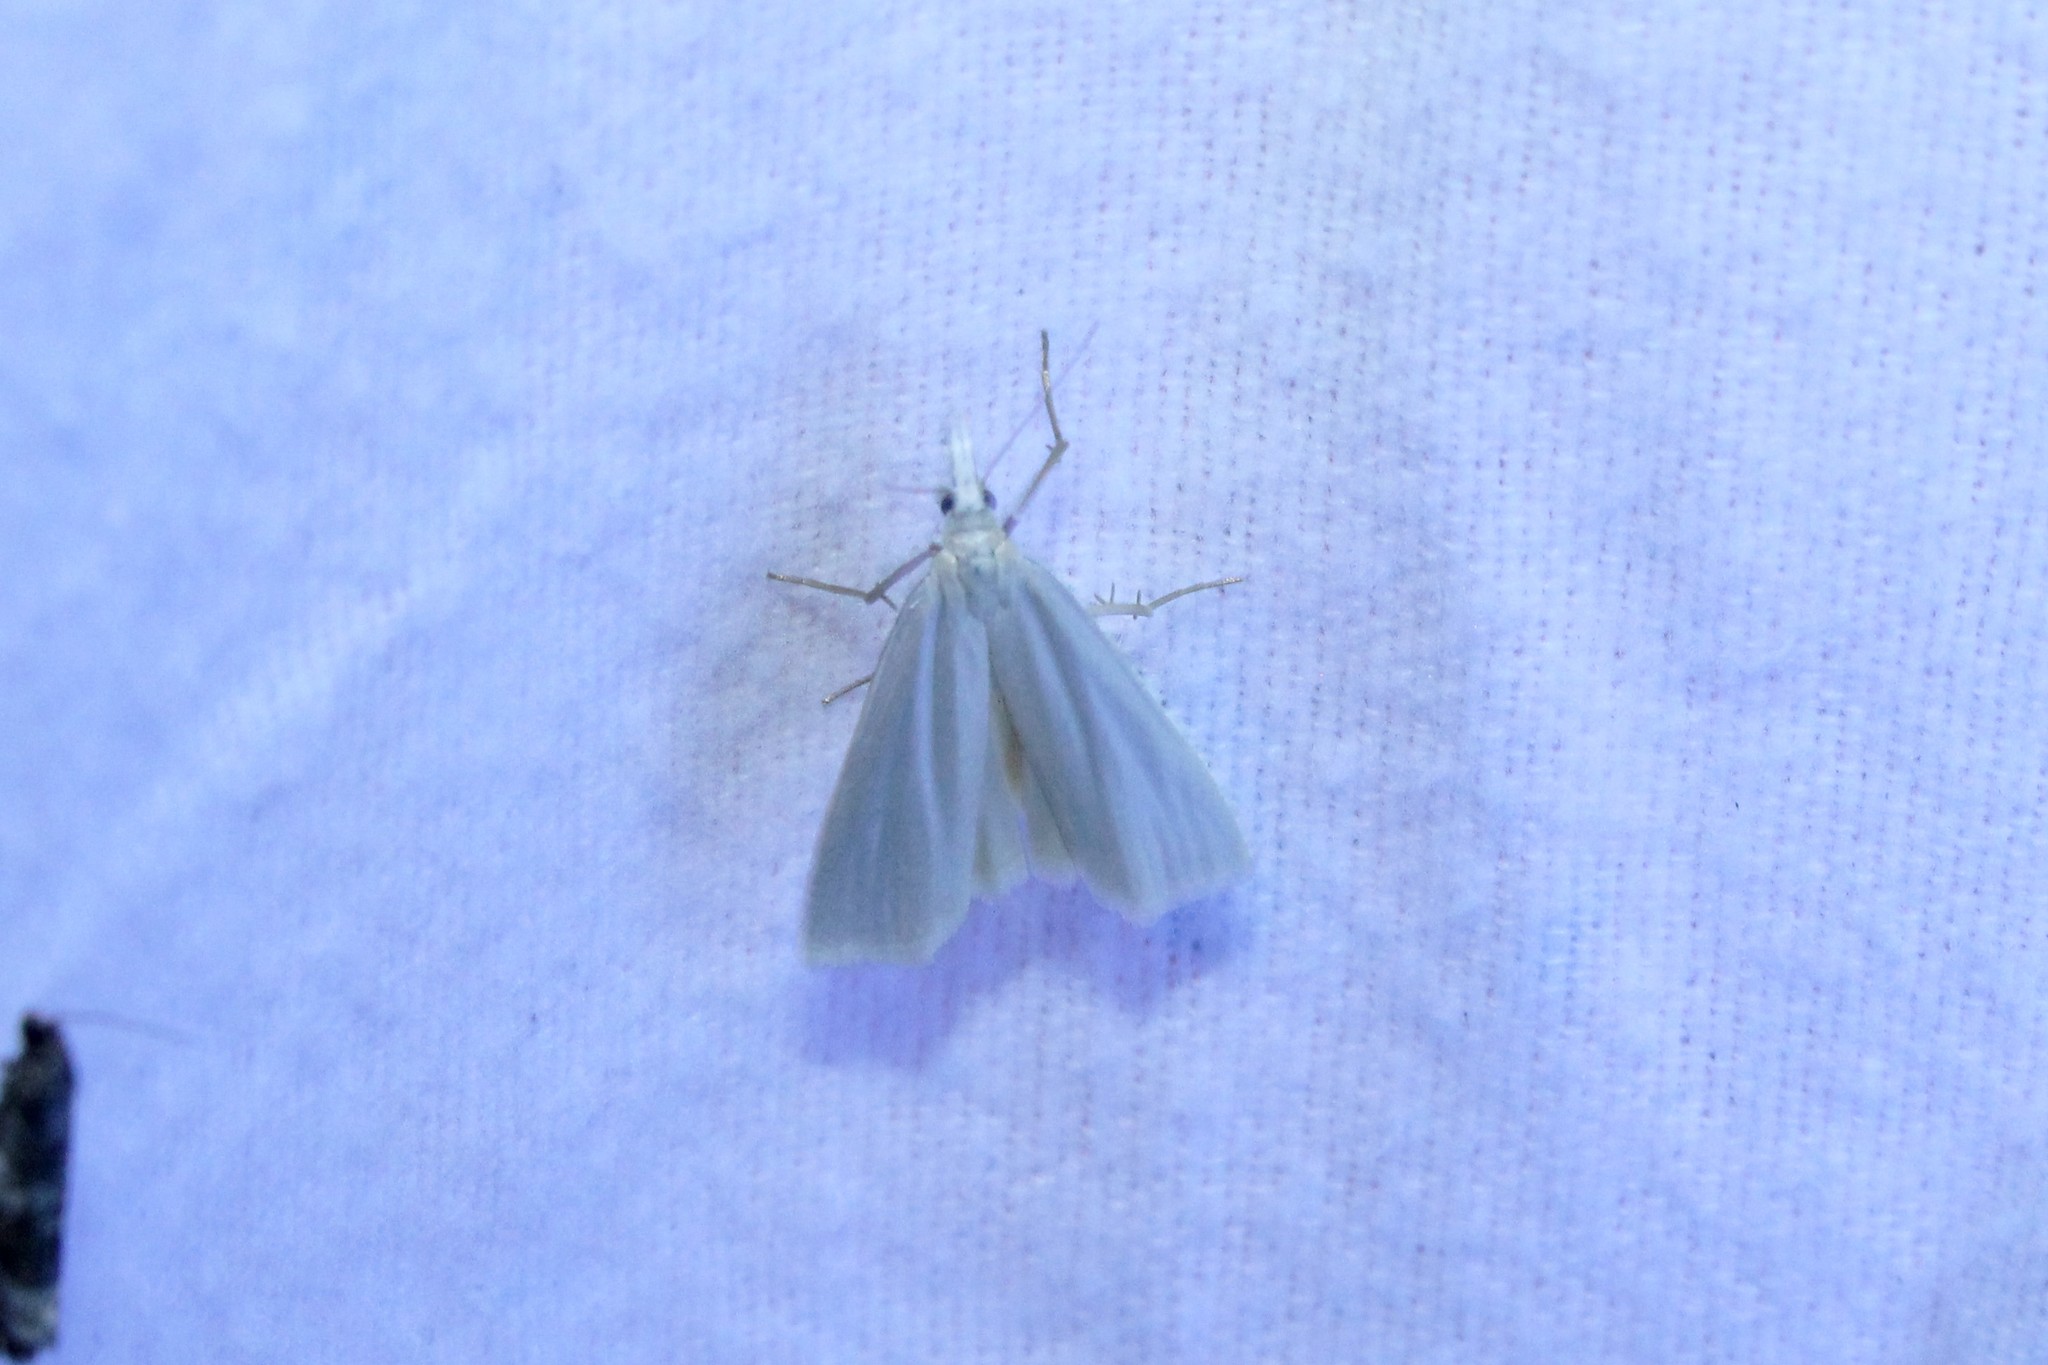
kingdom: Animalia
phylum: Arthropoda
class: Insecta
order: Lepidoptera
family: Crambidae
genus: Crambus
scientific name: Crambus perlellus
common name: Yellow satin veneer
